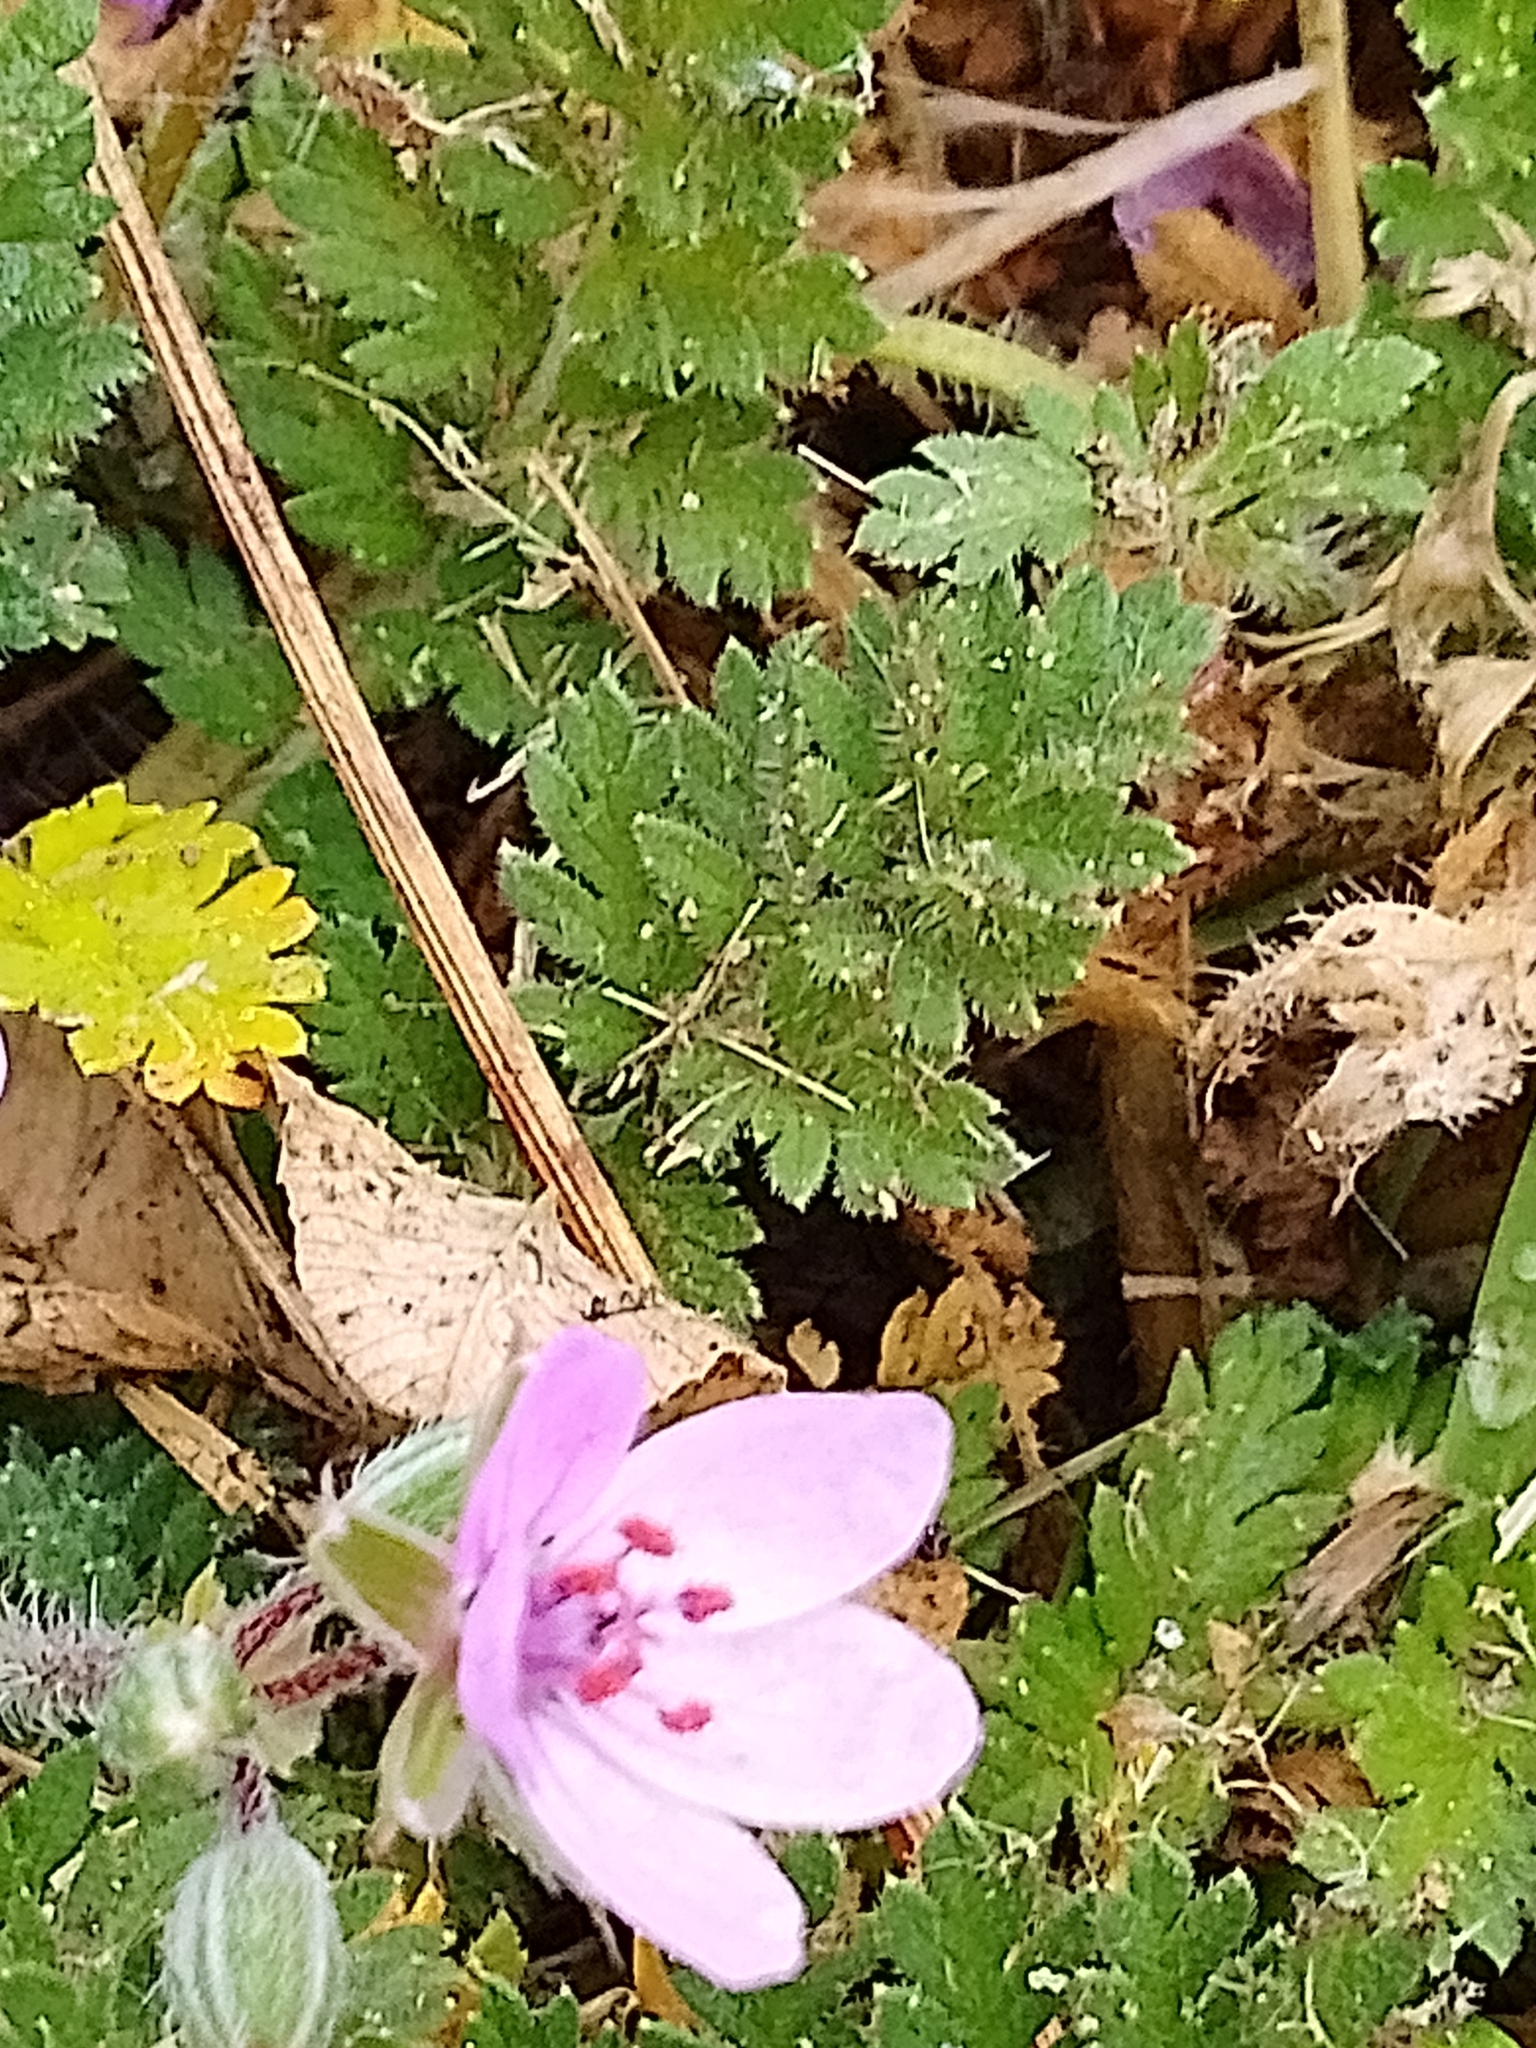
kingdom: Plantae
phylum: Tracheophyta
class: Magnoliopsida
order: Geraniales
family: Geraniaceae
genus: Erodium
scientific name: Erodium cicutarium
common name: Common stork's-bill
